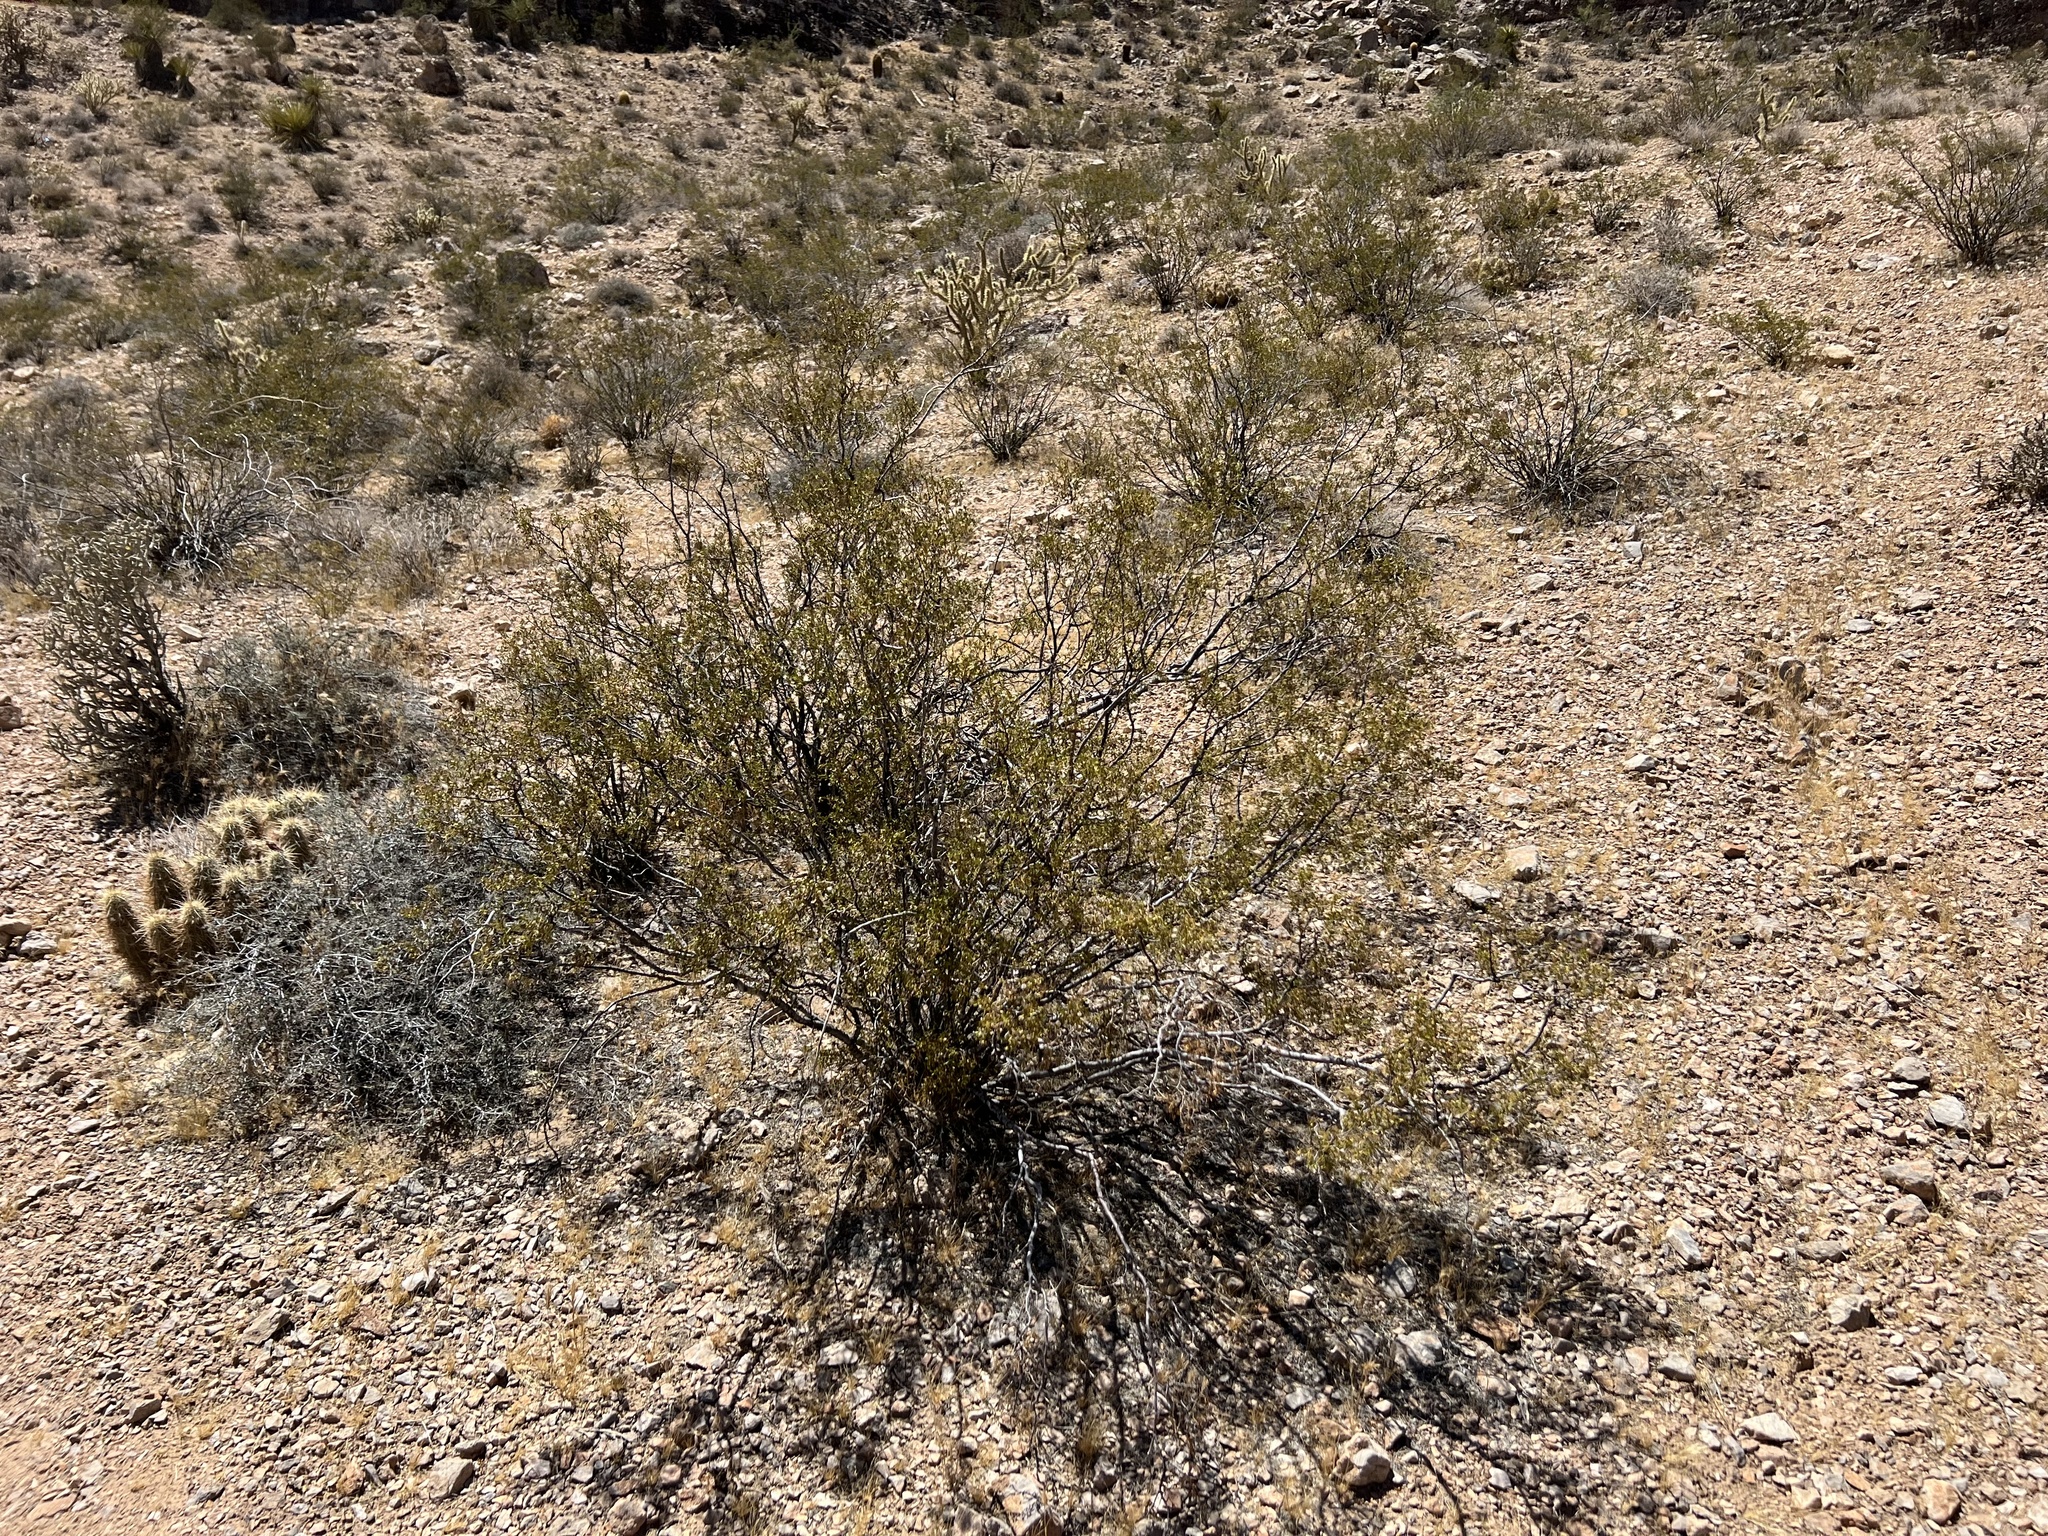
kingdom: Plantae
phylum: Tracheophyta
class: Magnoliopsida
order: Zygophyllales
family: Zygophyllaceae
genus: Larrea
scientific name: Larrea tridentata
